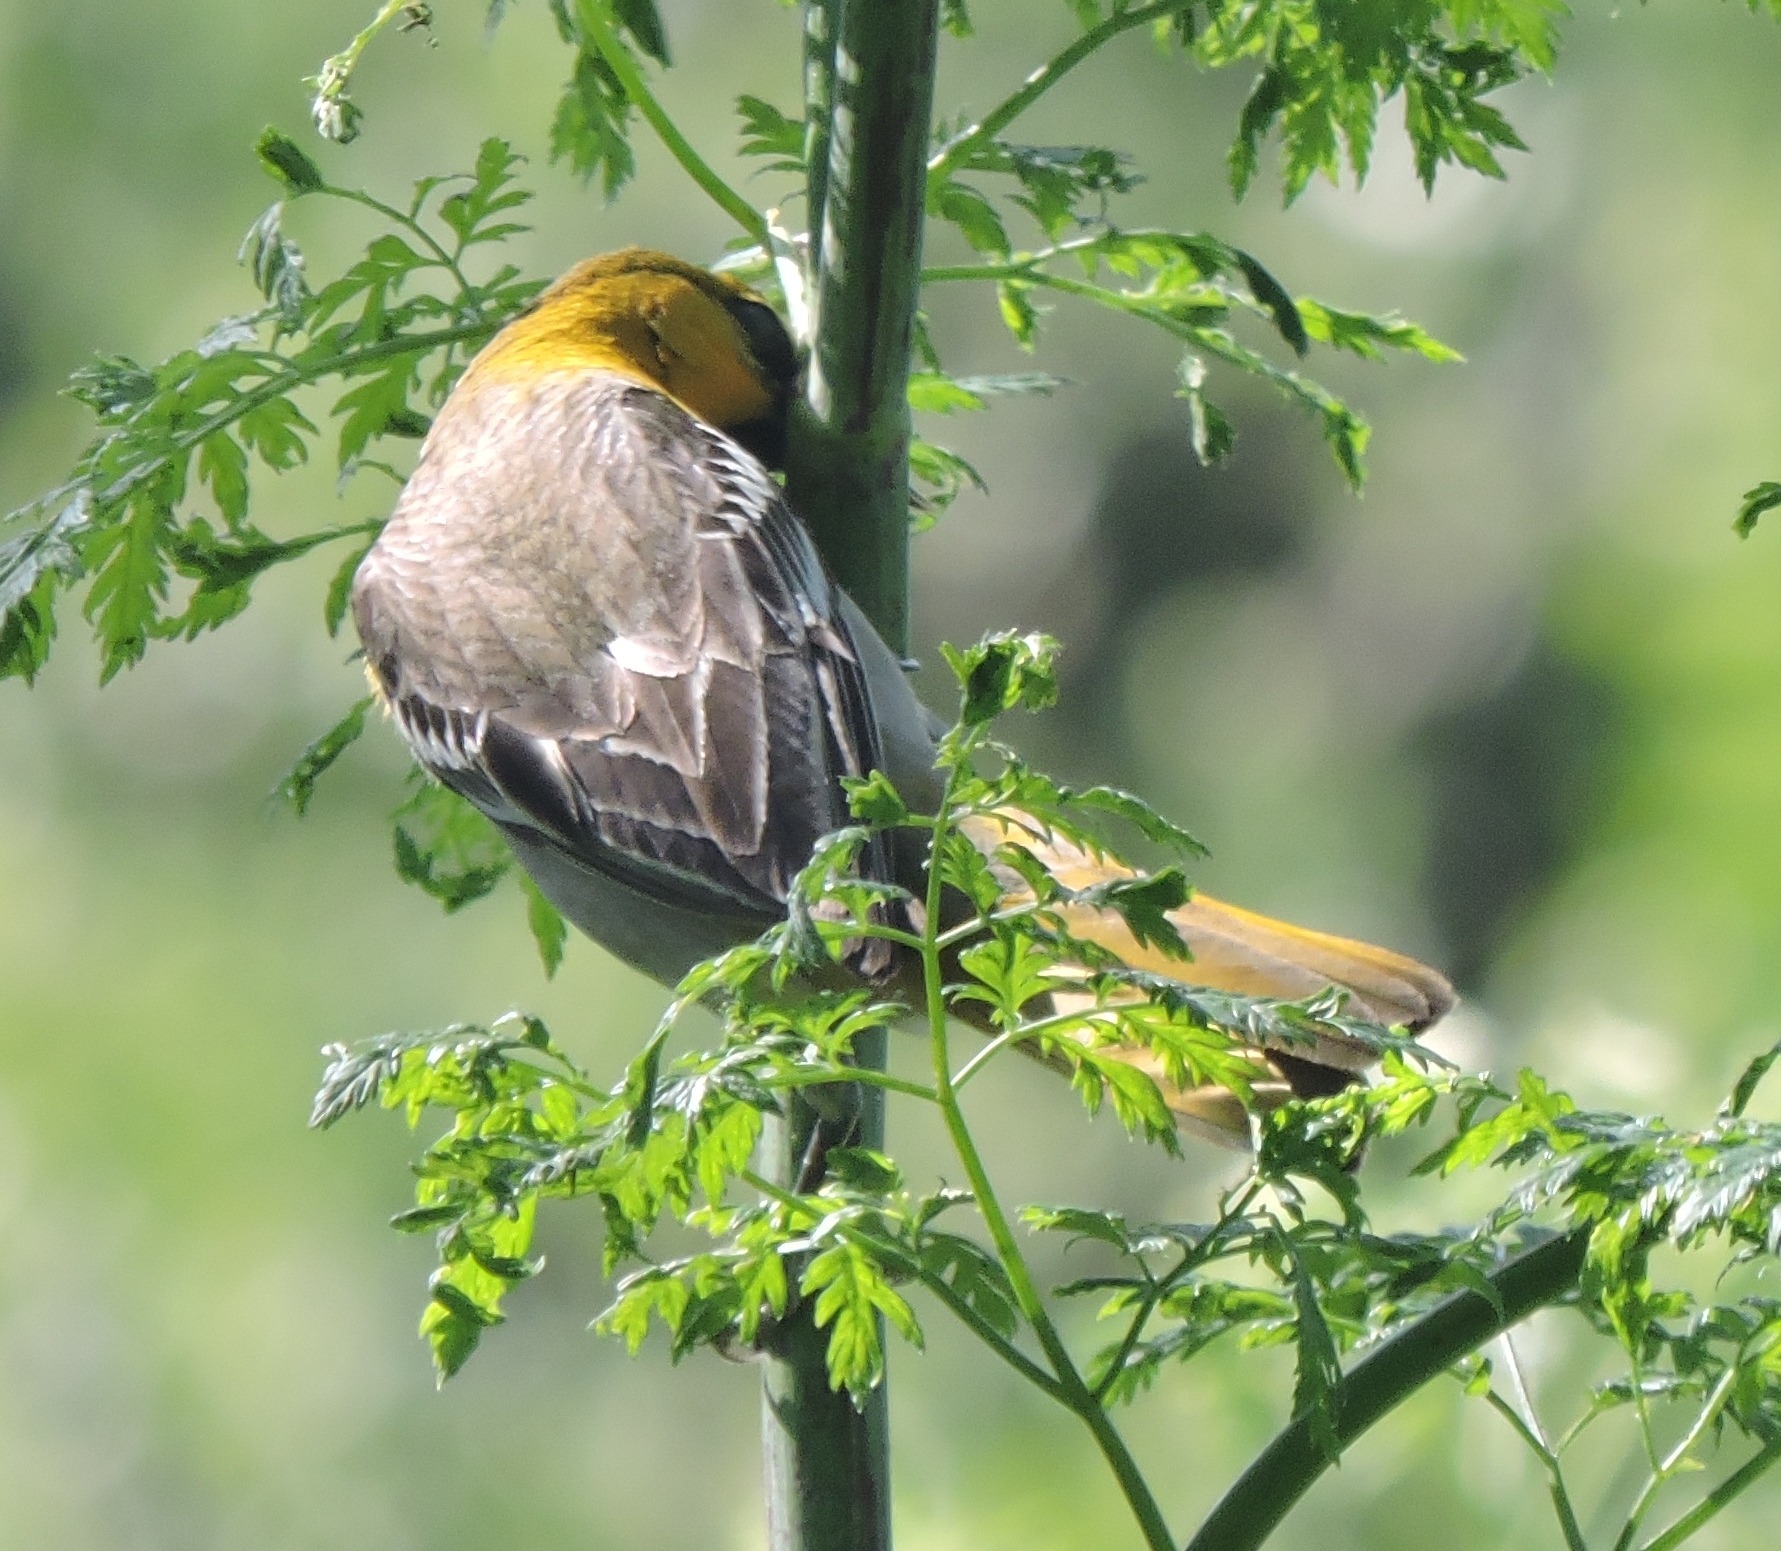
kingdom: Animalia
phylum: Chordata
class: Aves
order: Passeriformes
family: Icteridae
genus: Icterus
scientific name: Icterus bullockii
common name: Bullock's oriole
